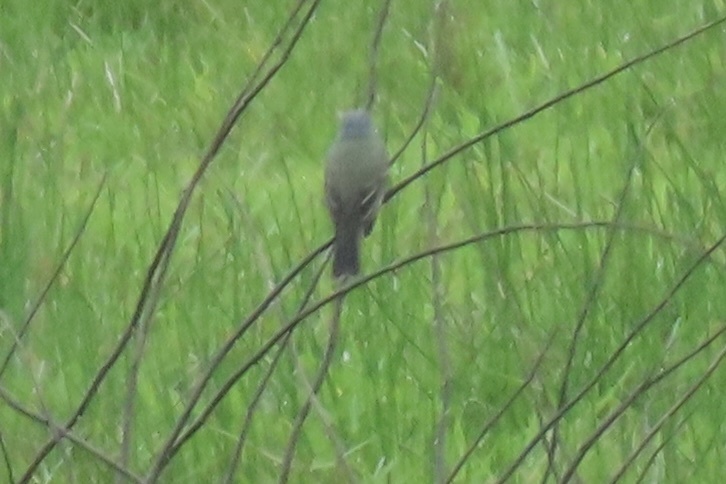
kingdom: Animalia
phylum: Chordata
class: Aves
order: Passeriformes
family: Tyrannidae
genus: Tyrannus
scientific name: Tyrannus melancholicus
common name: Tropical kingbird
